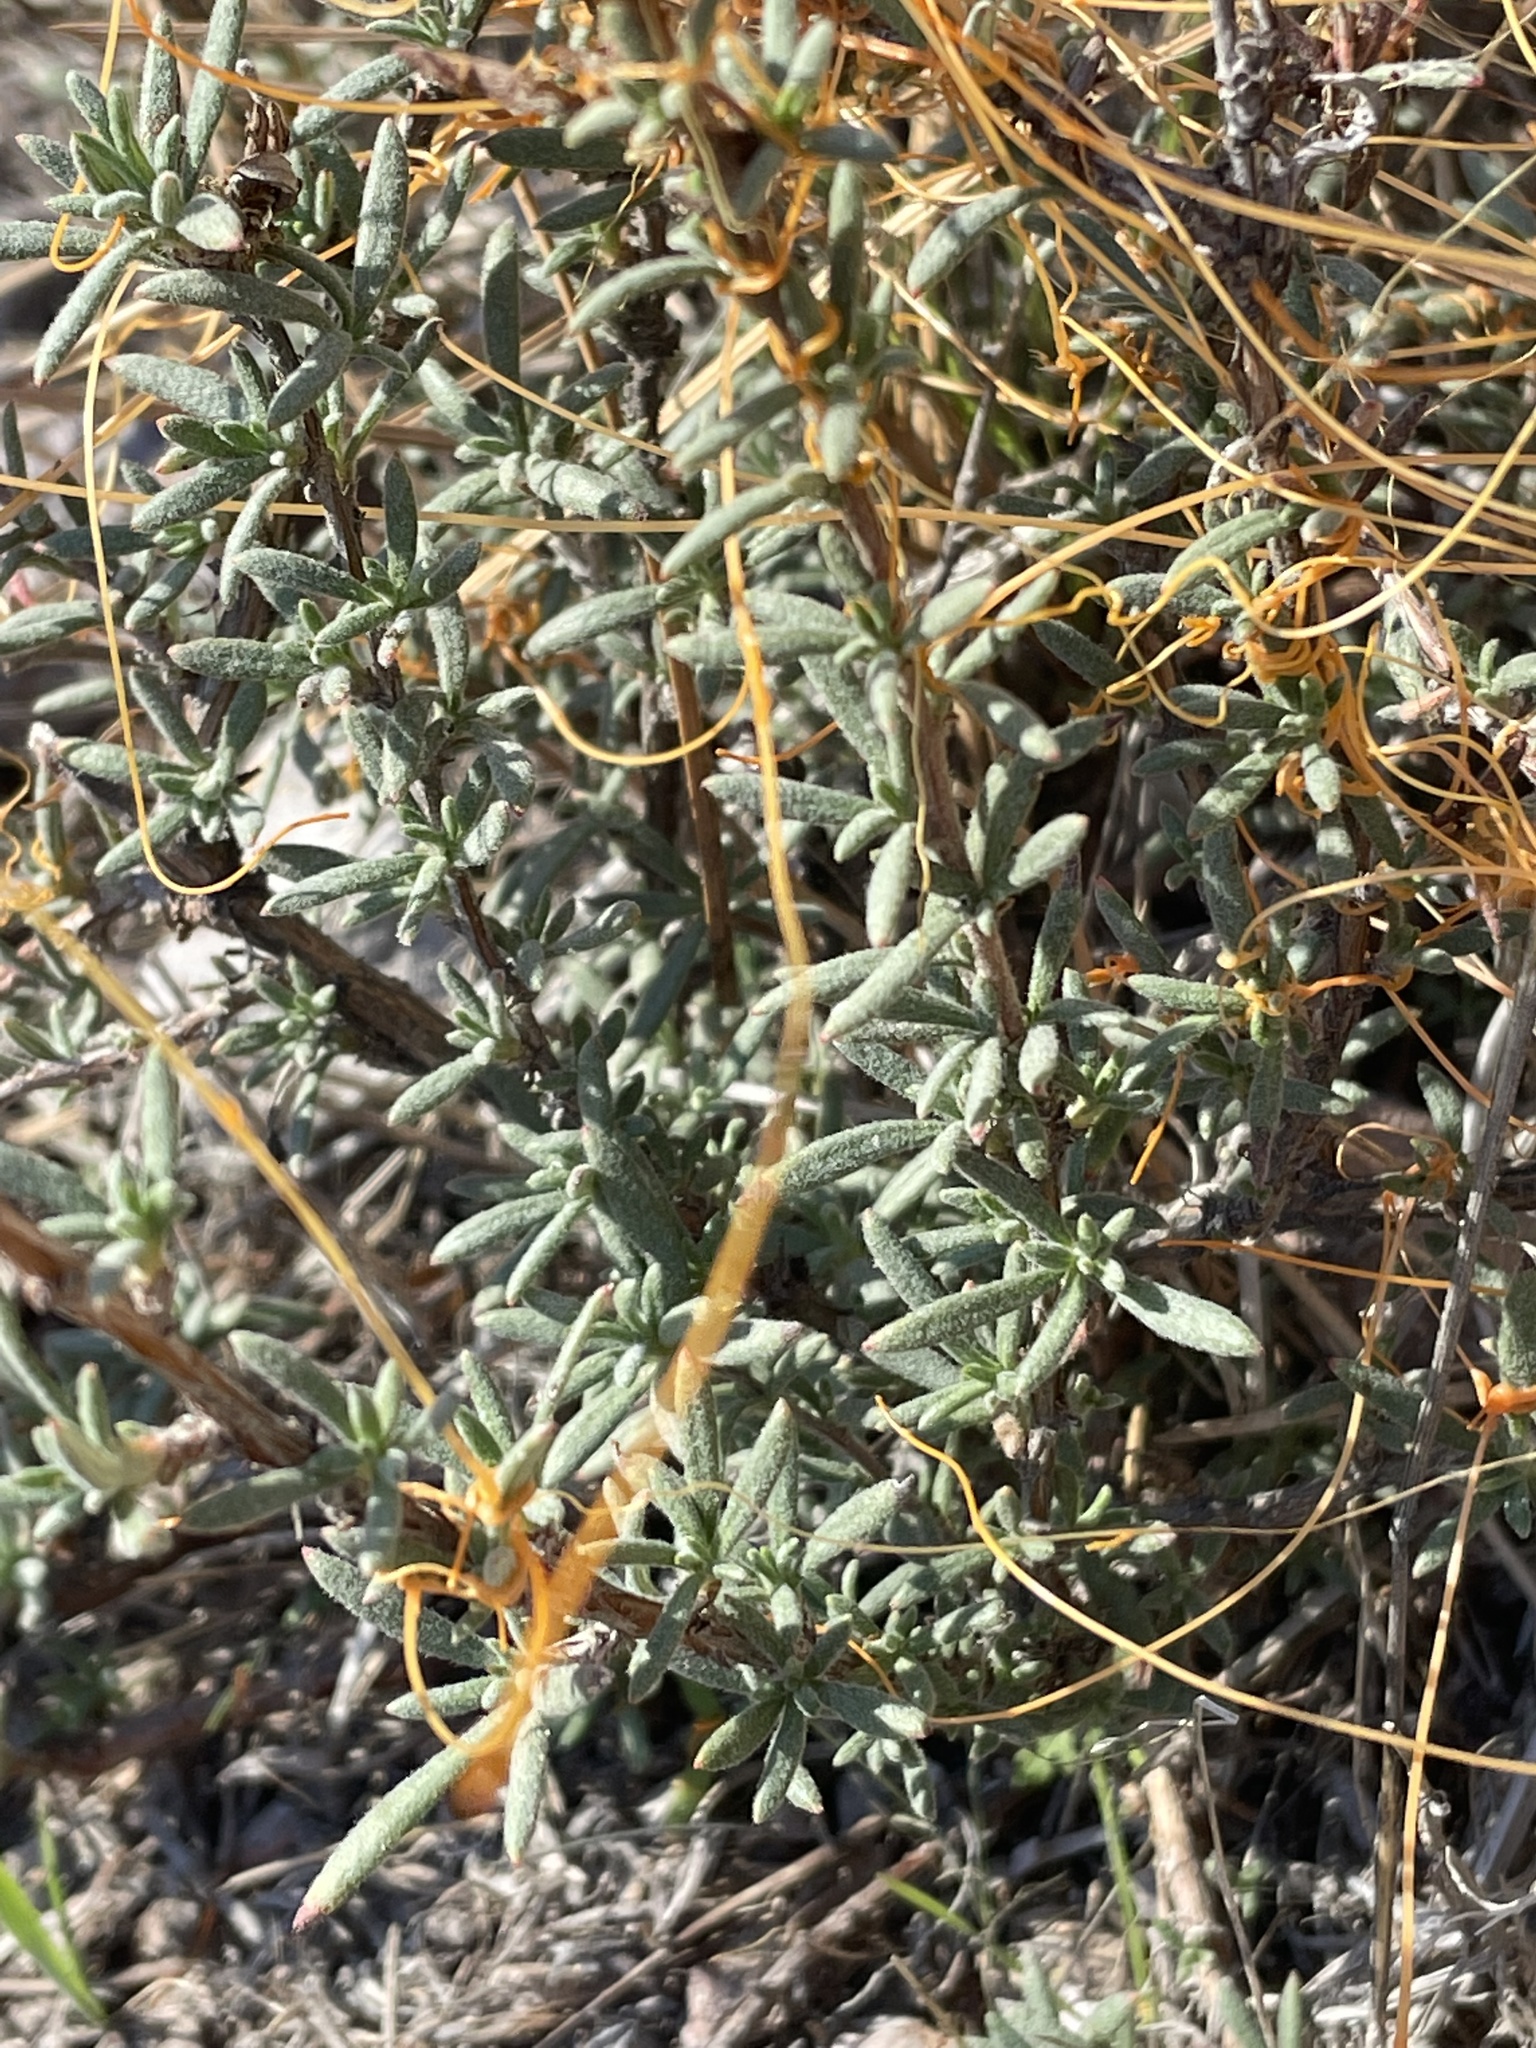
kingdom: Plantae
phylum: Tracheophyta
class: Magnoliopsida
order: Caryophyllales
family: Polygonaceae
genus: Eriogonum
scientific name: Eriogonum fasciculatum
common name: California wild buckwheat
